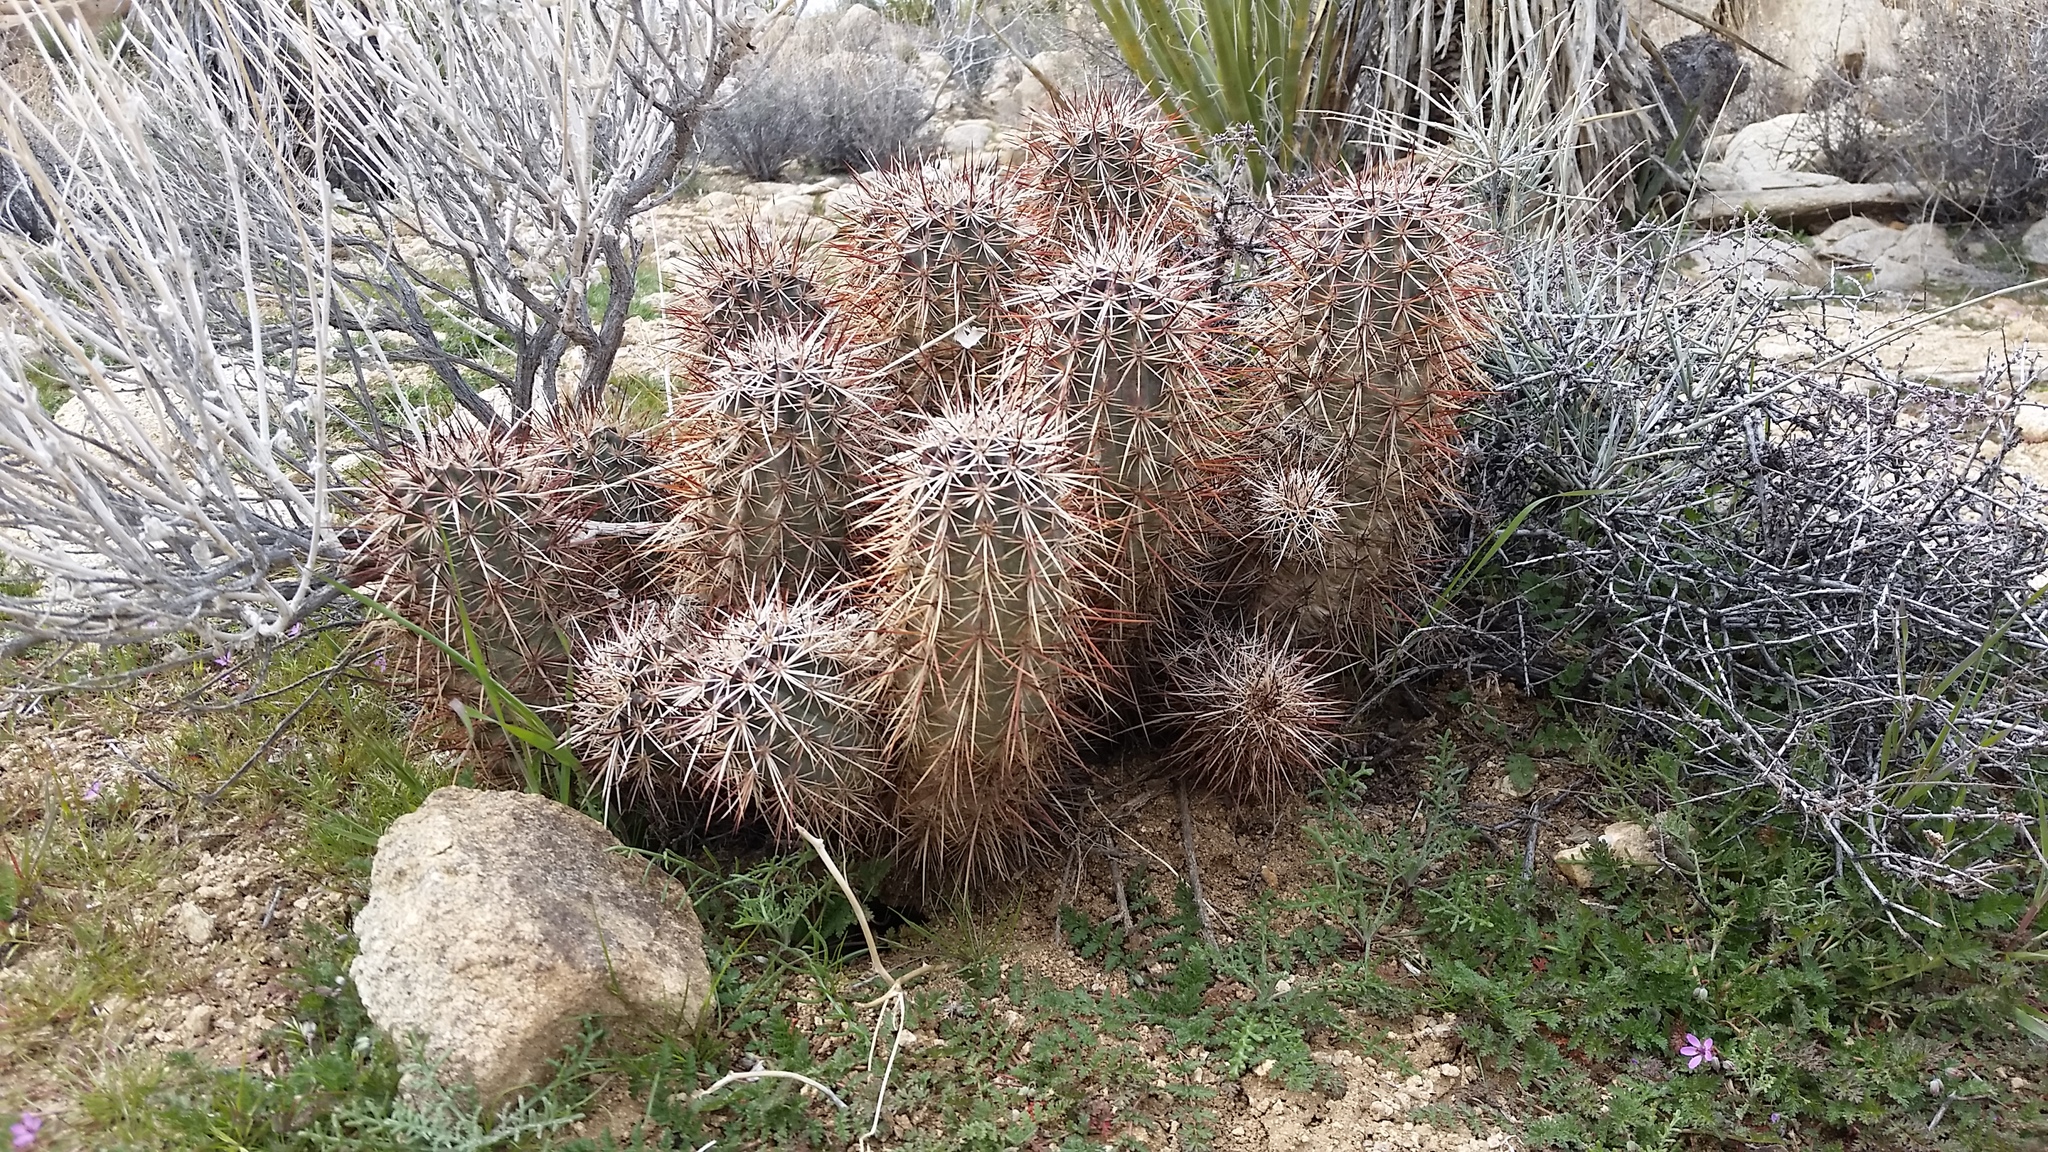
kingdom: Plantae
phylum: Tracheophyta
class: Magnoliopsida
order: Caryophyllales
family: Cactaceae
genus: Echinocereus
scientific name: Echinocereus engelmannii
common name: Engelmann's hedgehog cactus
